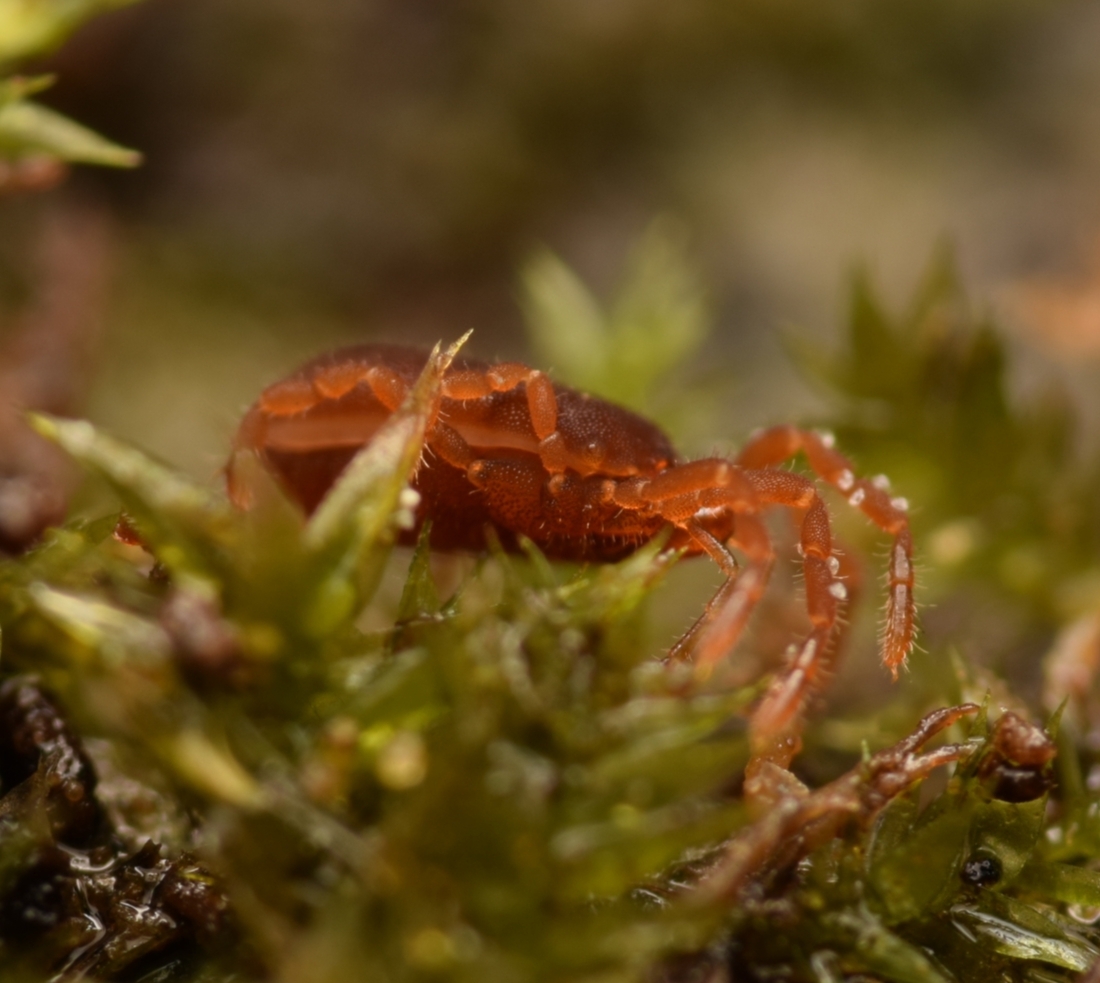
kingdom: Animalia
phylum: Arthropoda
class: Arachnida
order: Opiliones
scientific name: Opiliones
